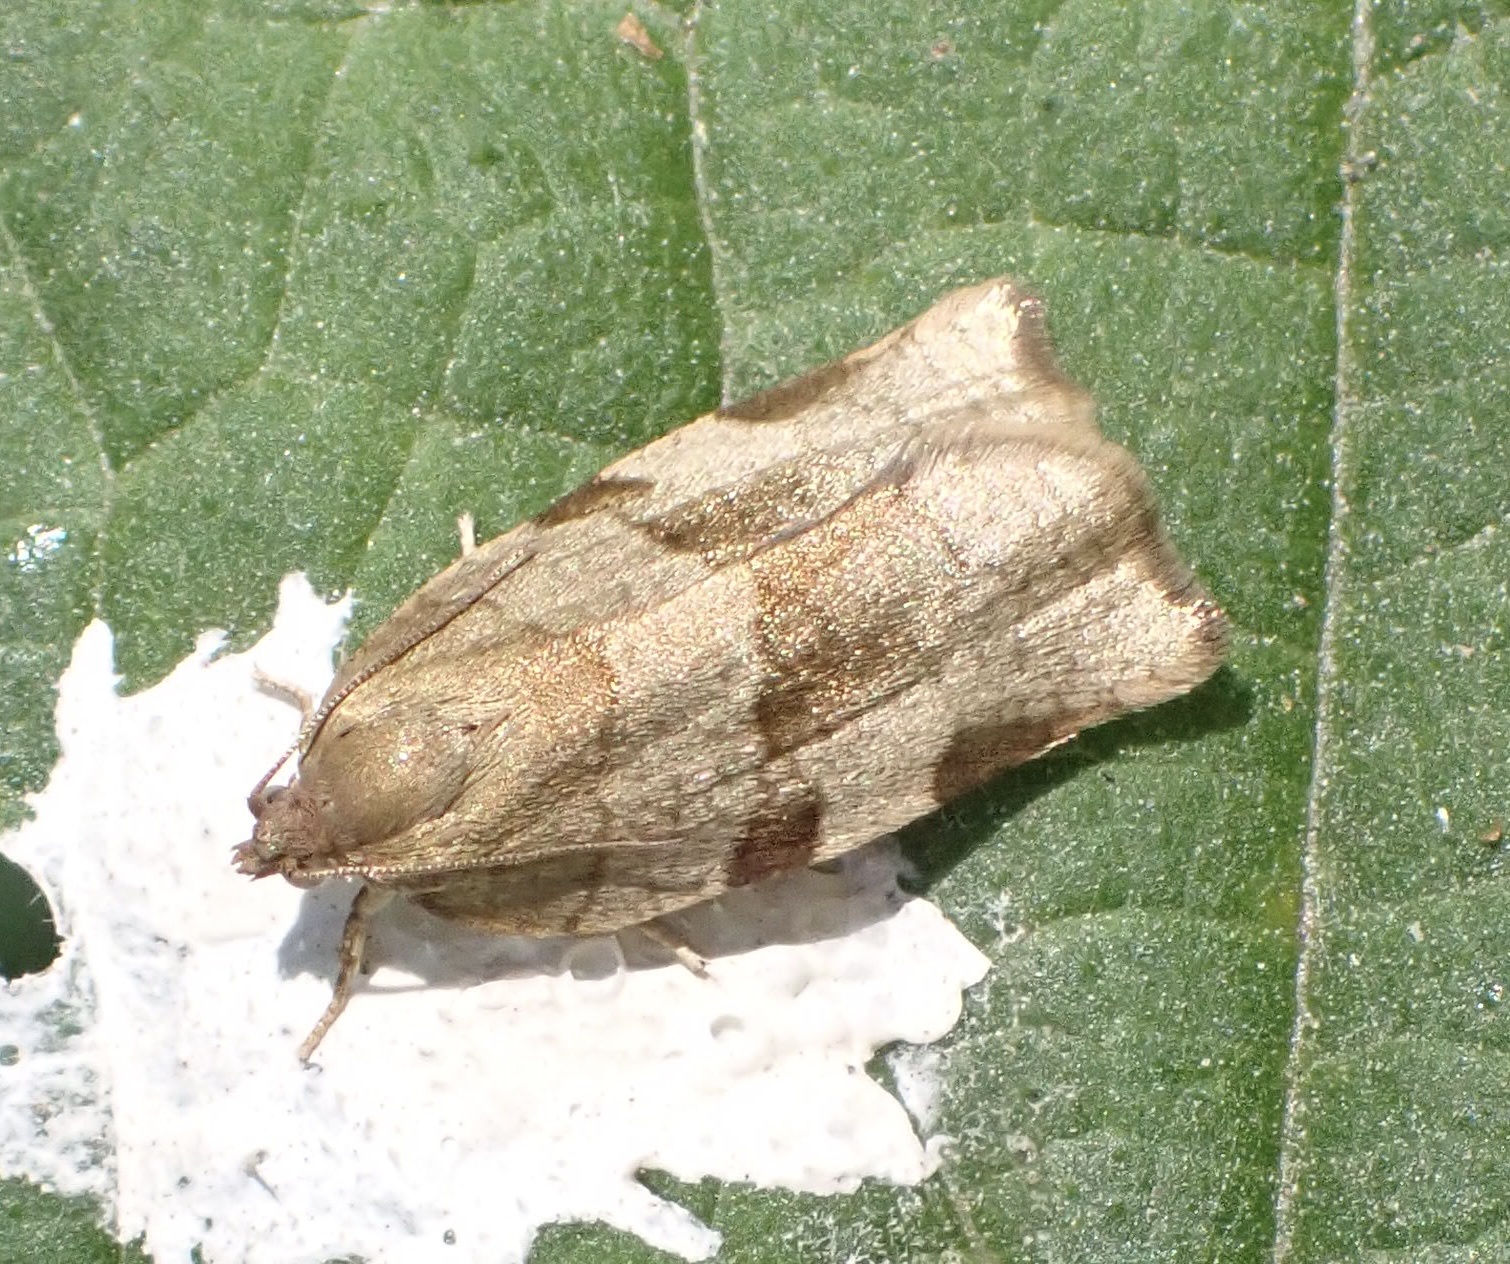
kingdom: Animalia
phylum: Arthropoda
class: Insecta
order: Lepidoptera
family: Tortricidae
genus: Choristoneura
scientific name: Choristoneura hebenstreitella
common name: Great twist
